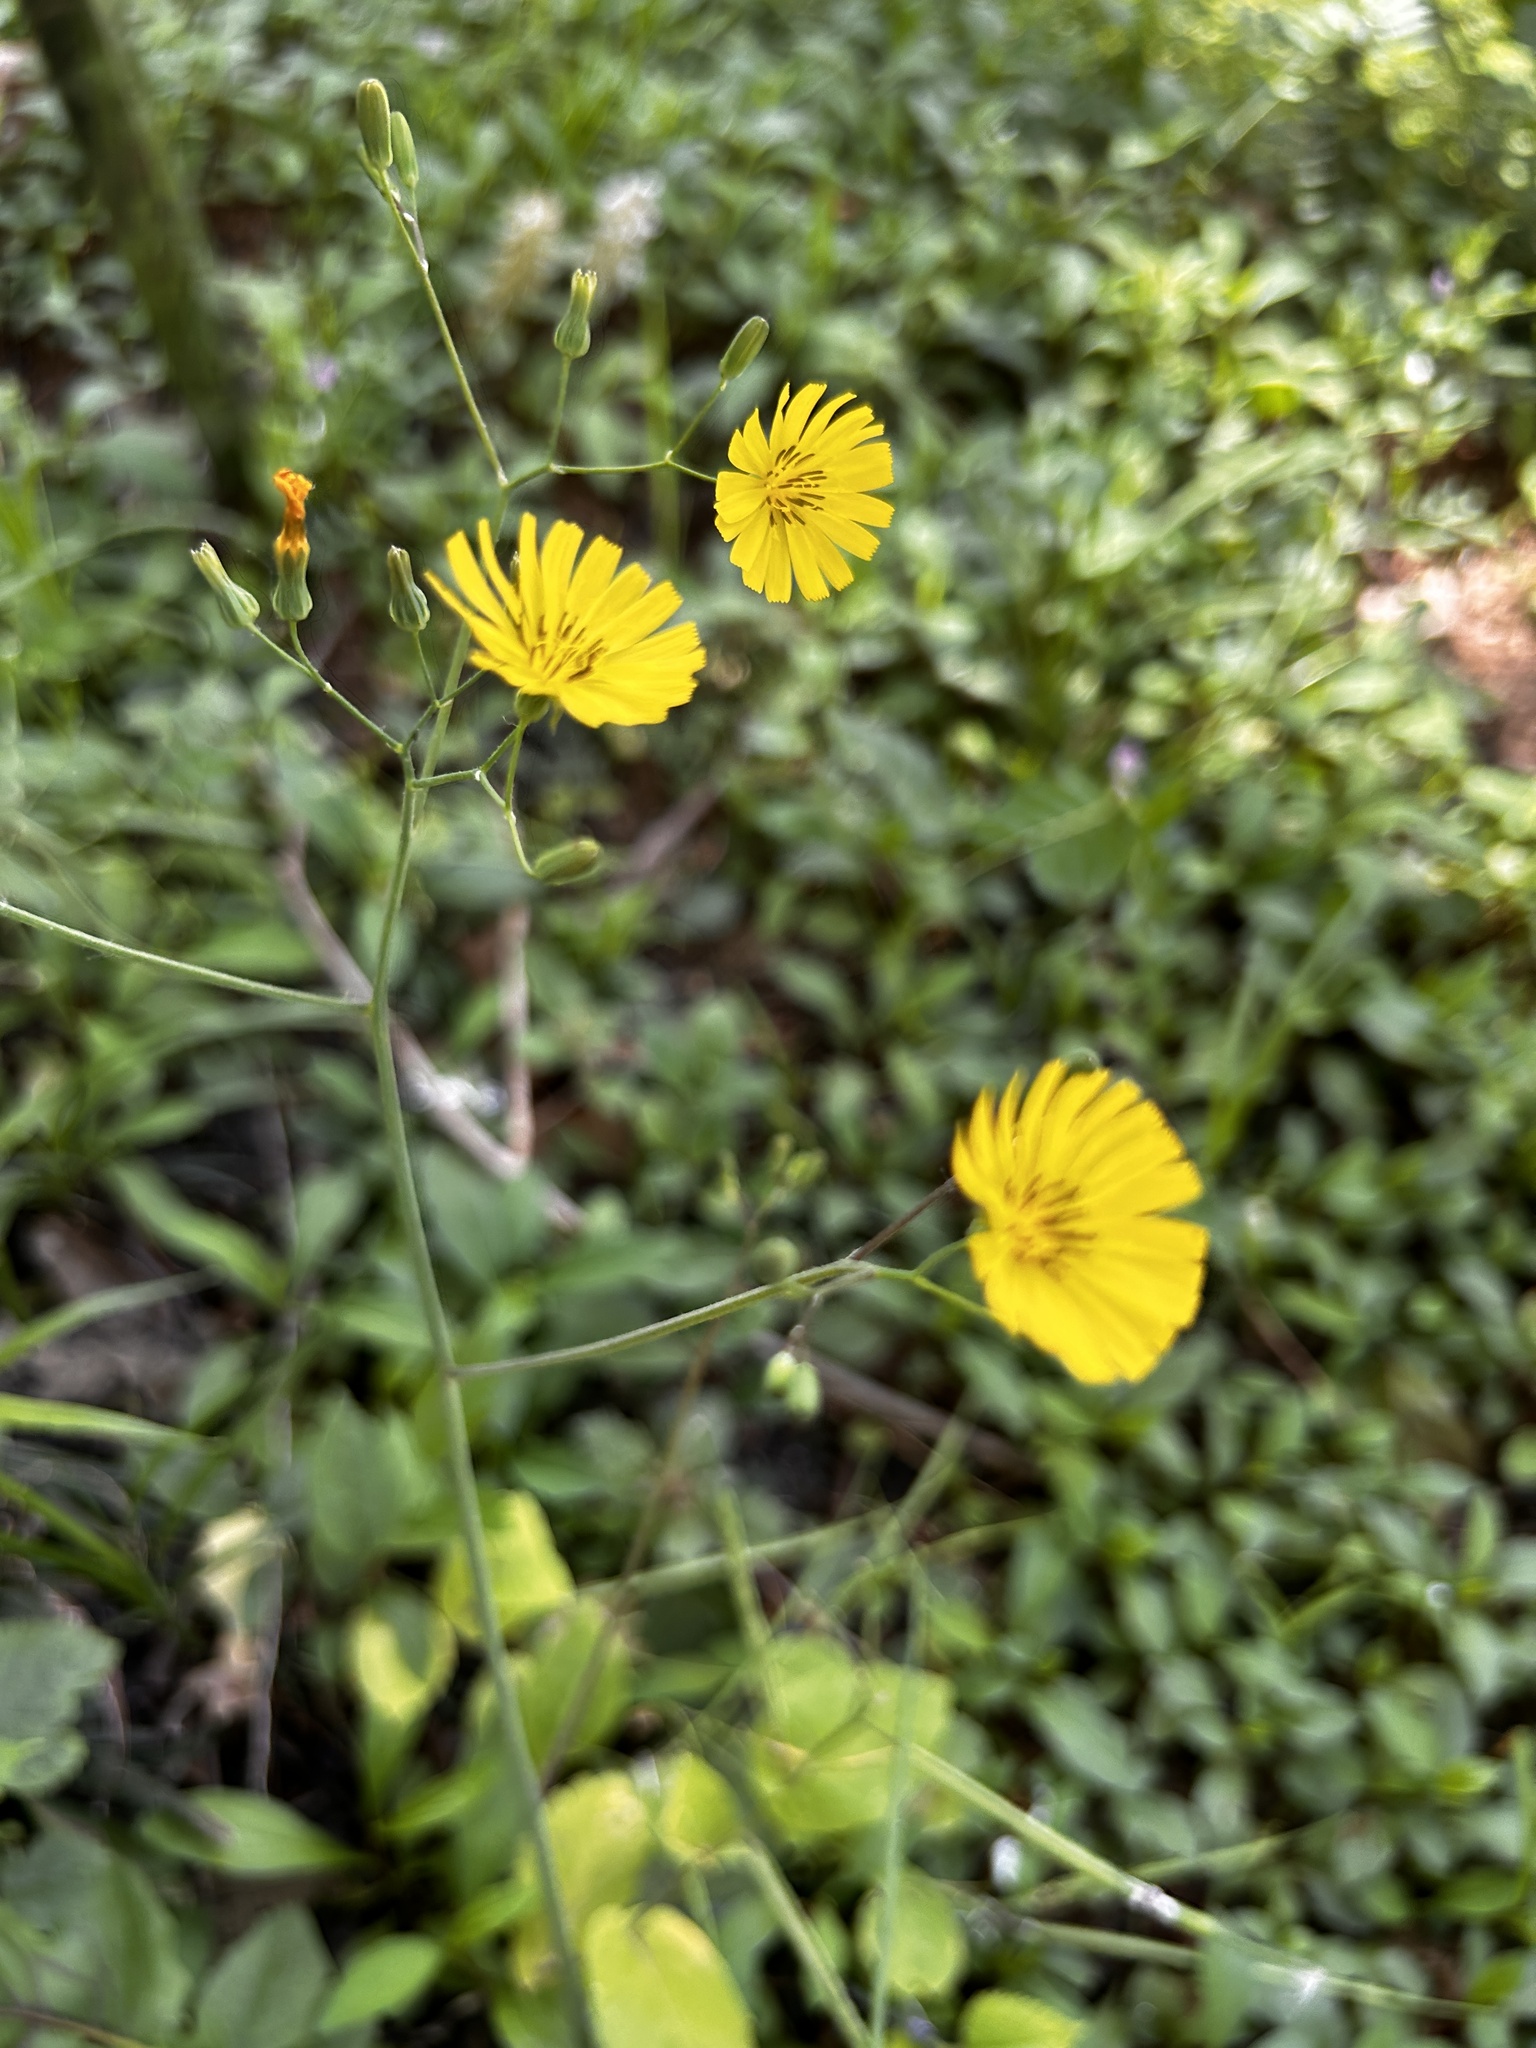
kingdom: Plantae
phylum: Tracheophyta
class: Magnoliopsida
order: Asterales
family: Asteraceae
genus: Youngia
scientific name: Youngia japonica
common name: Oriental false hawksbeard
